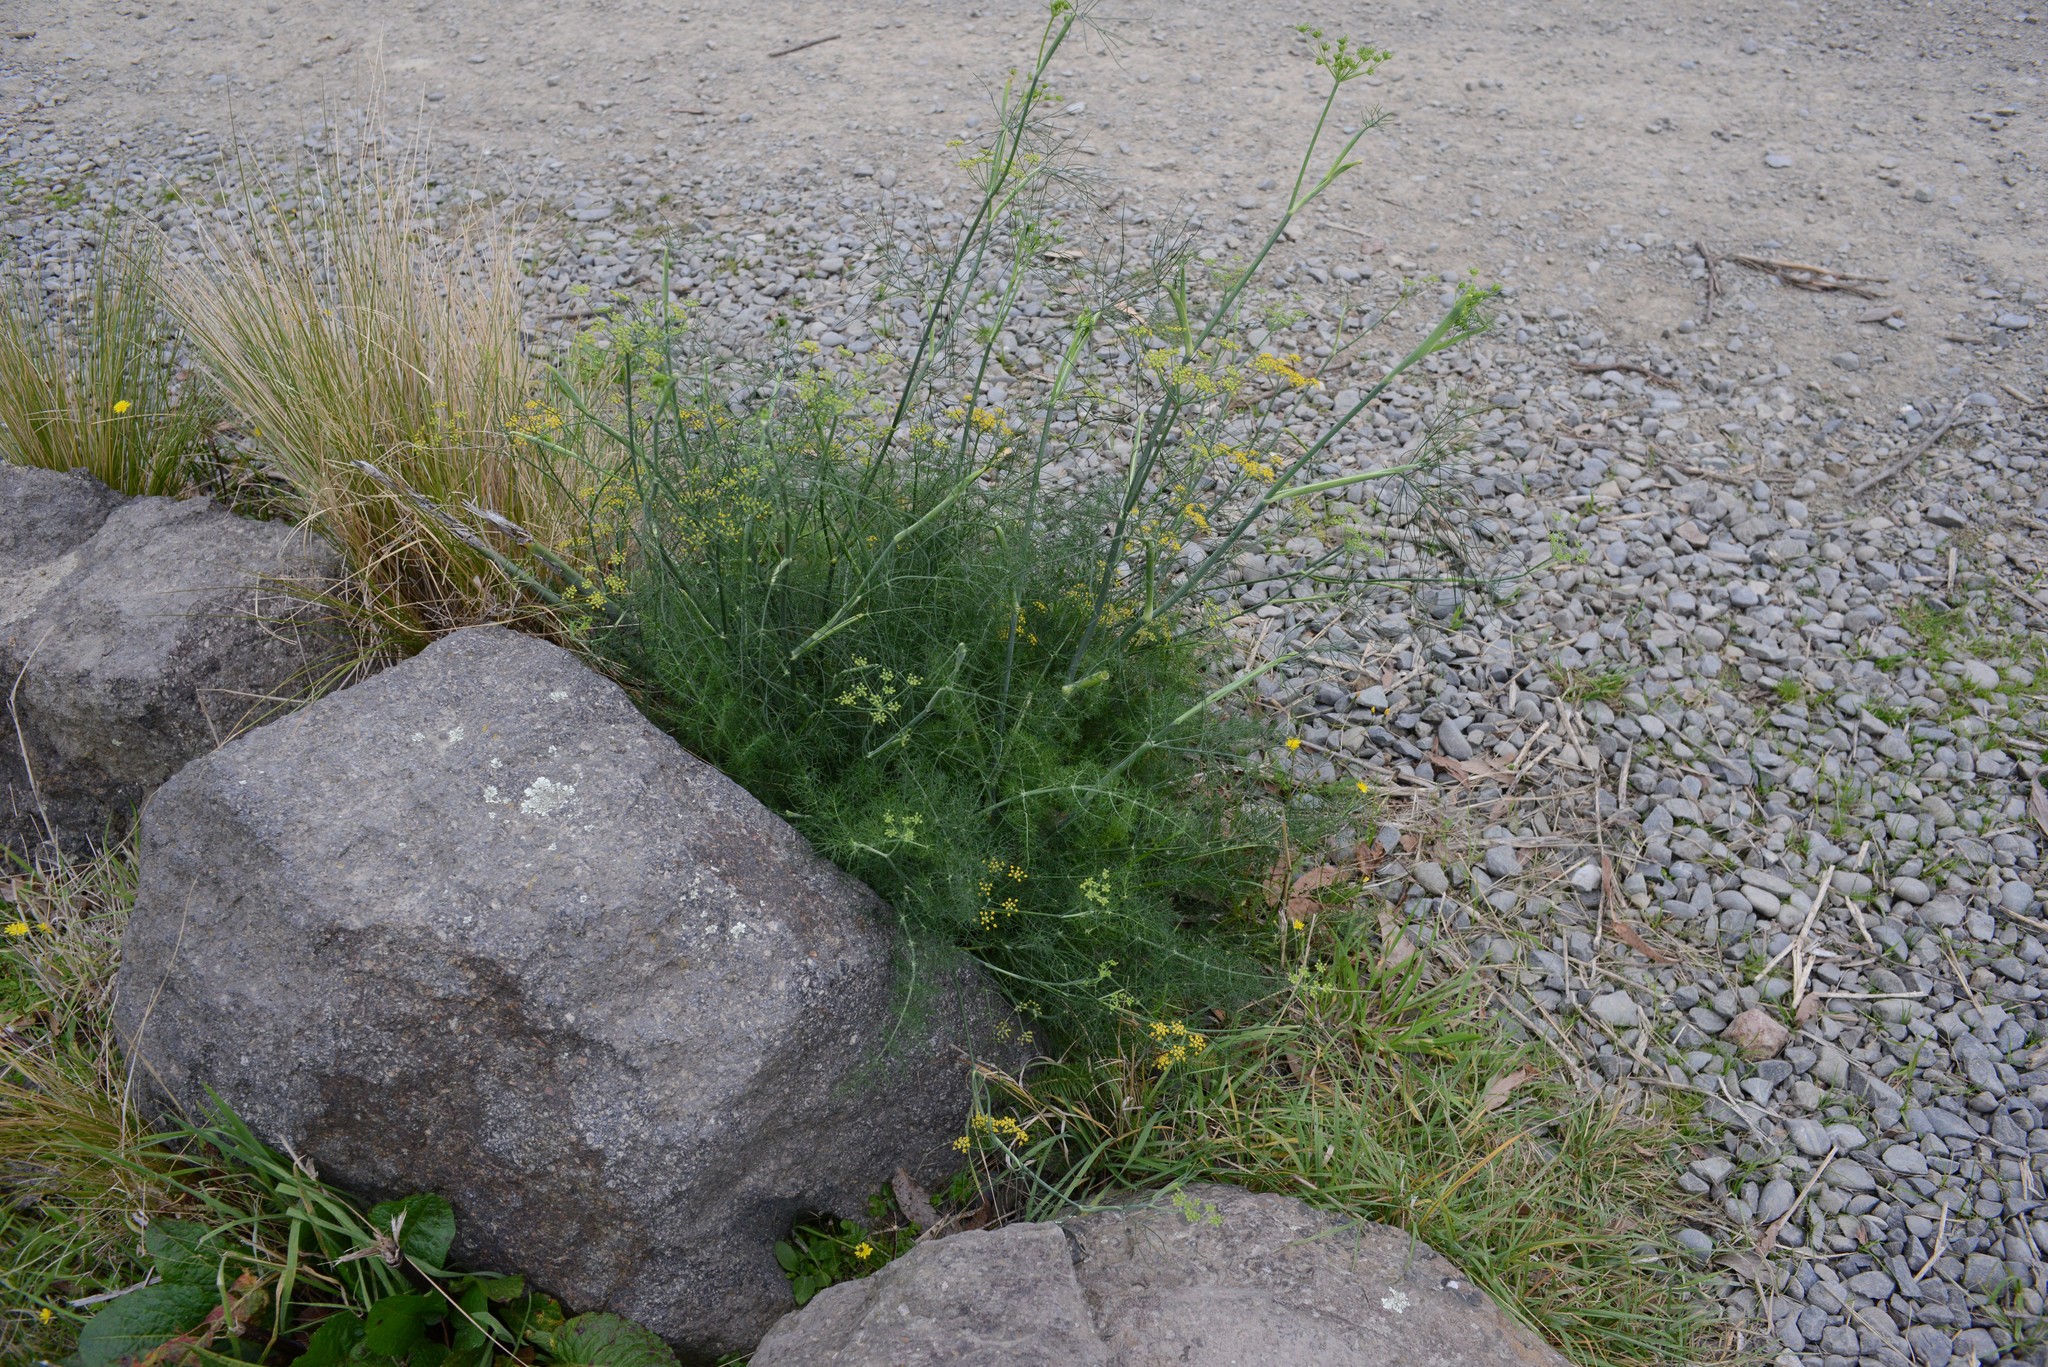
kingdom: Plantae
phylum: Tracheophyta
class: Magnoliopsida
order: Apiales
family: Apiaceae
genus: Foeniculum
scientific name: Foeniculum vulgare
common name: Fennel
